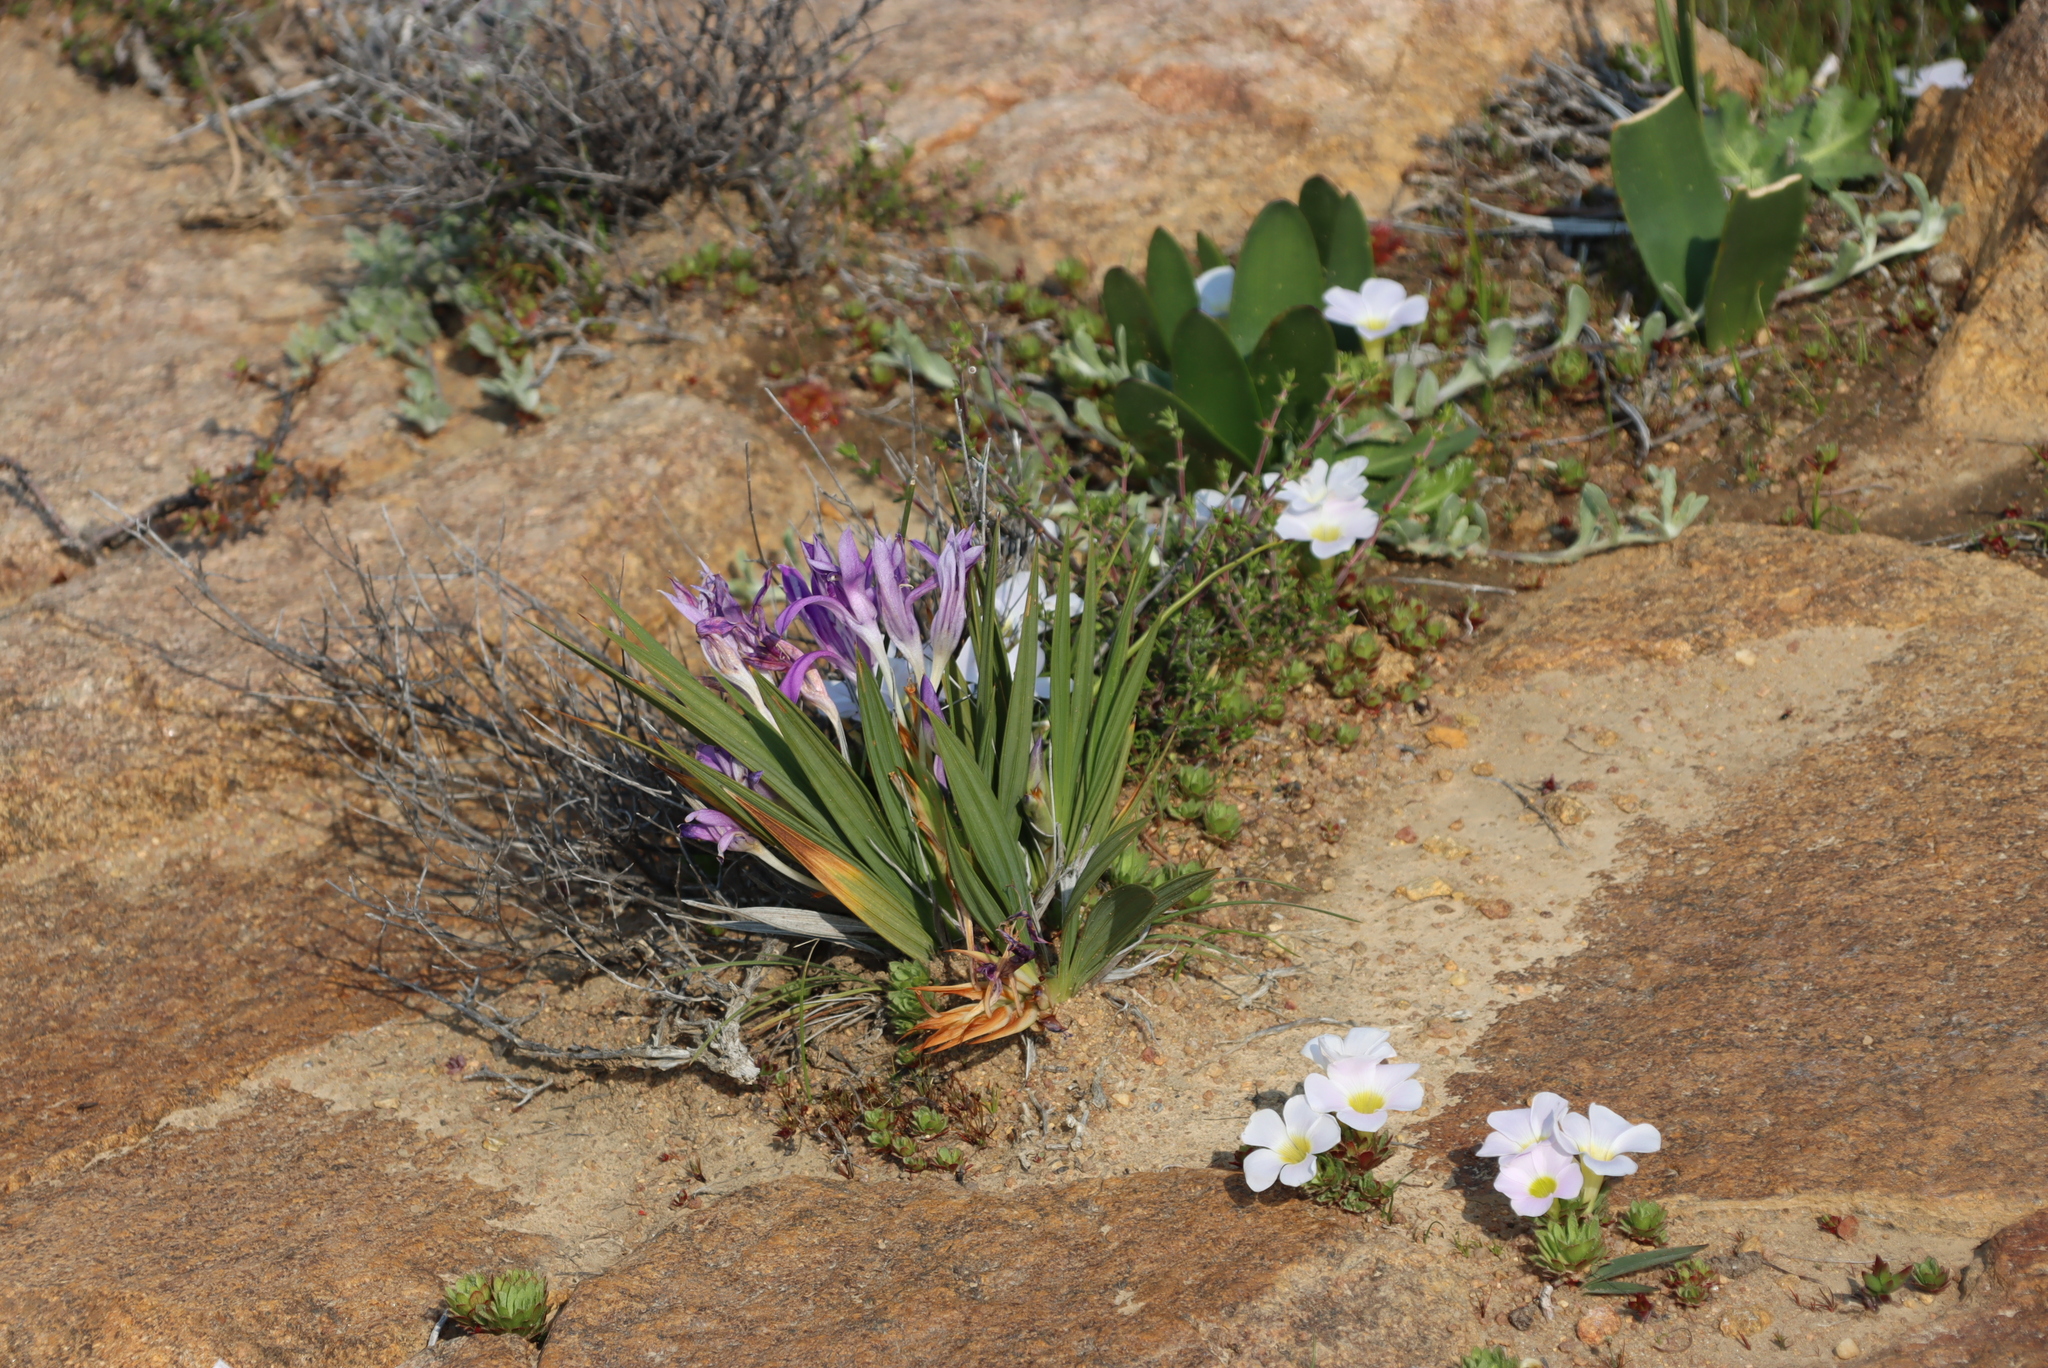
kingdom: Plantae
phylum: Tracheophyta
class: Magnoliopsida
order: Oxalidales
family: Oxalidaceae
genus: Oxalis
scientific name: Oxalis adenodes
